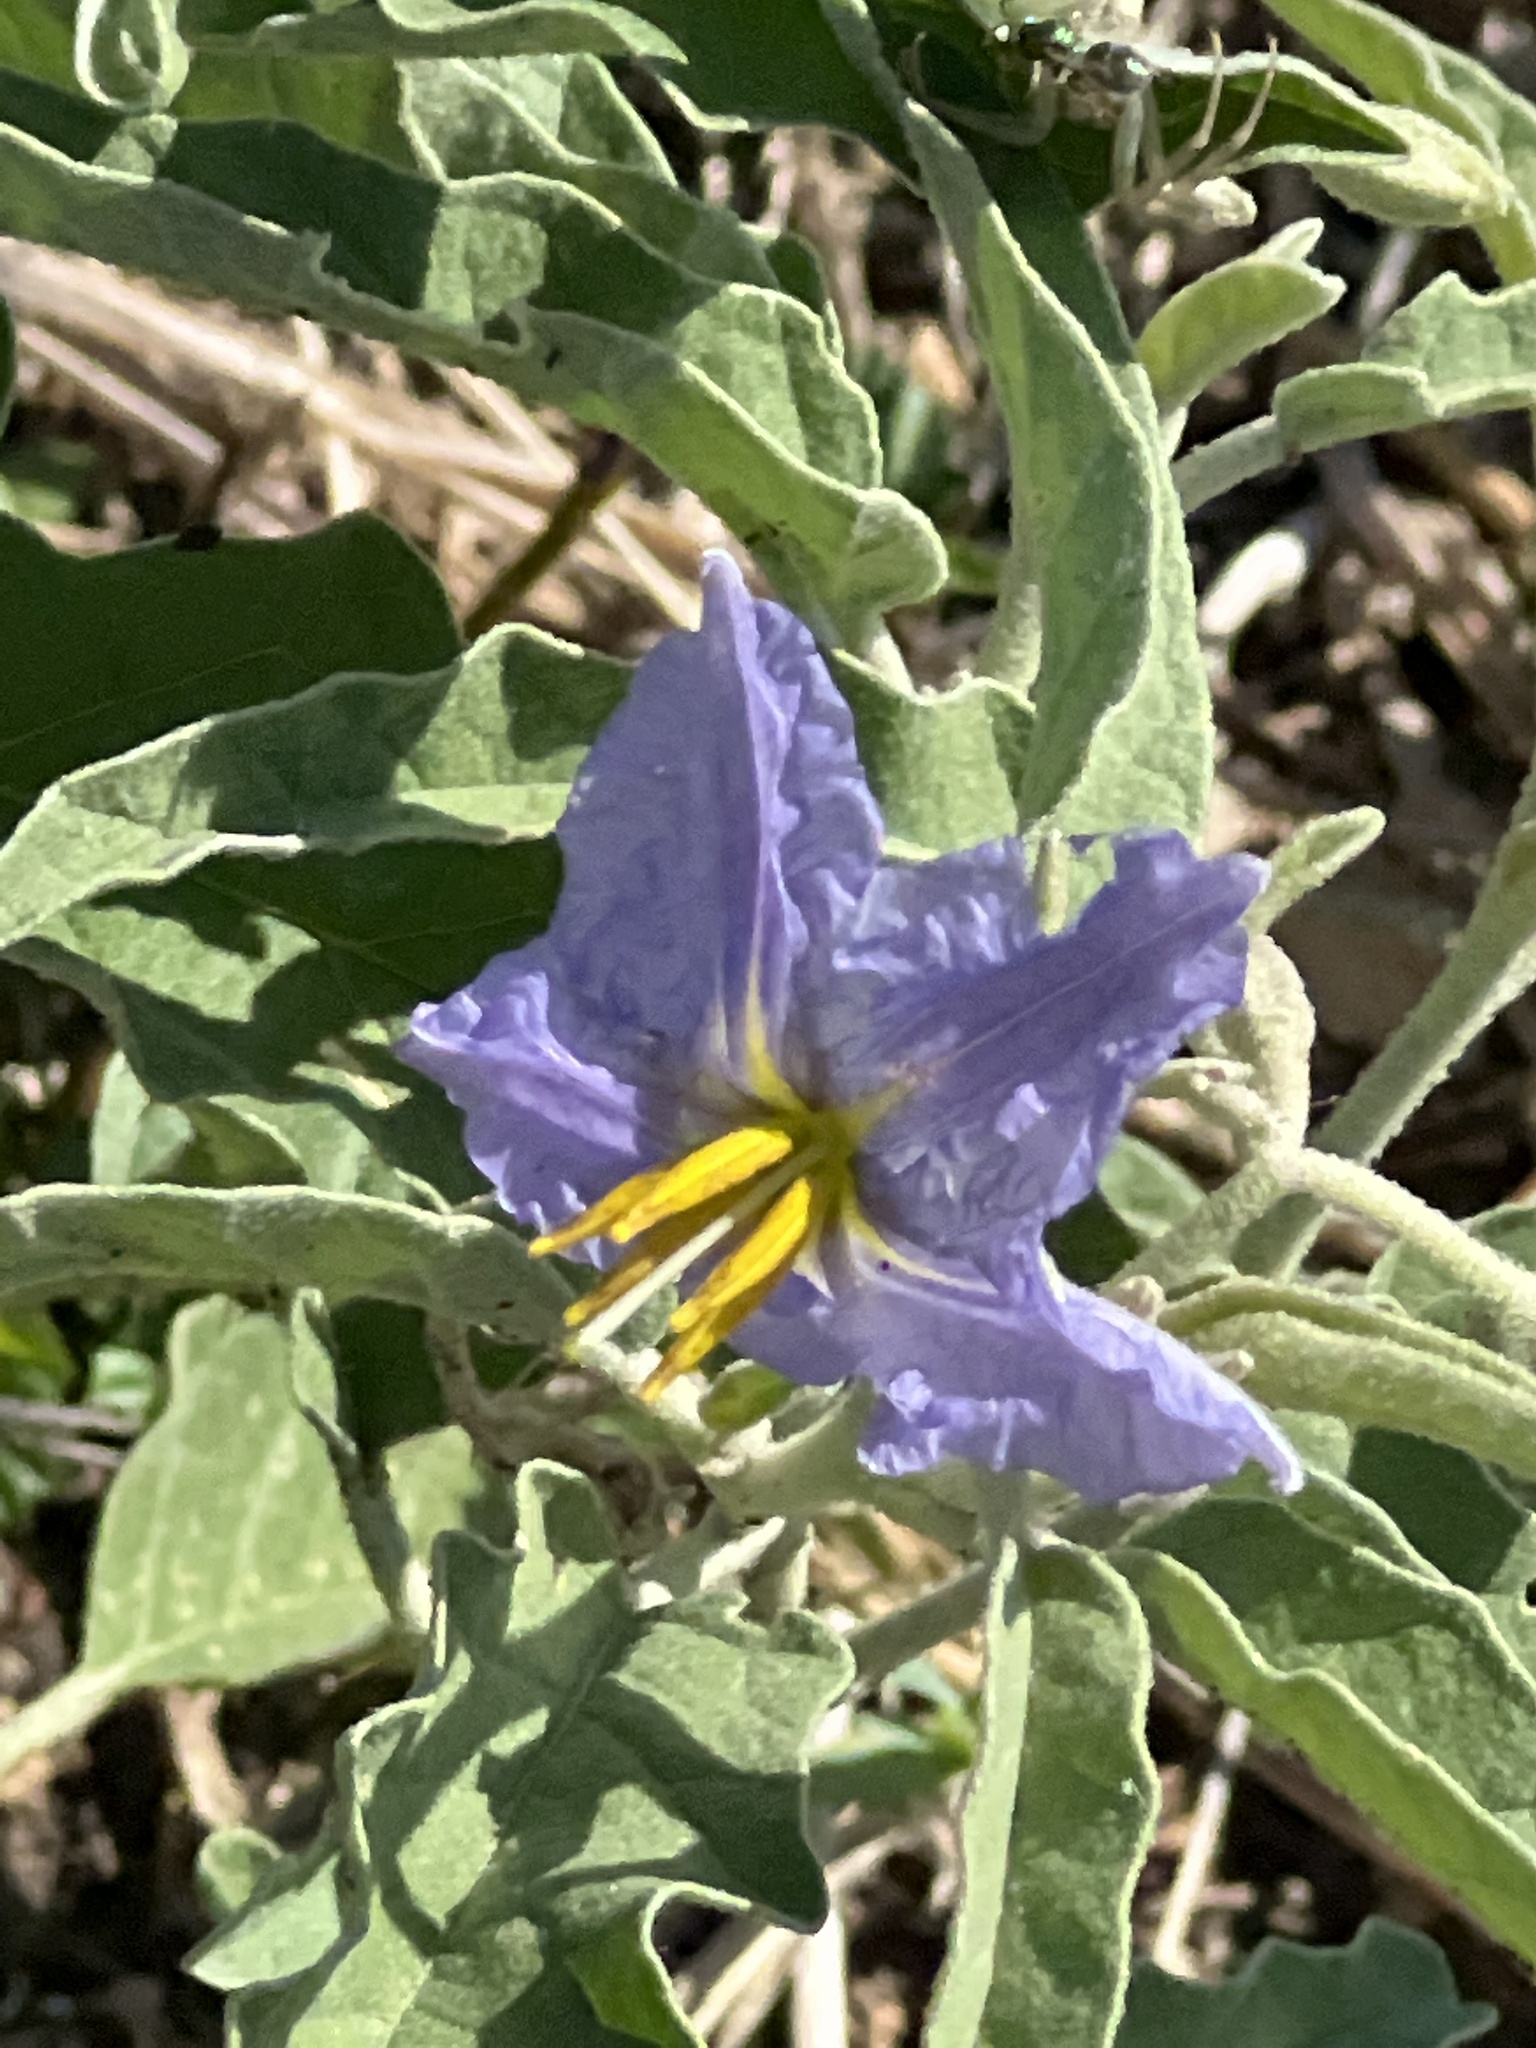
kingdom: Plantae
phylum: Tracheophyta
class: Magnoliopsida
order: Solanales
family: Solanaceae
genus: Solanum
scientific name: Solanum elaeagnifolium
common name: Silverleaf nightshade
